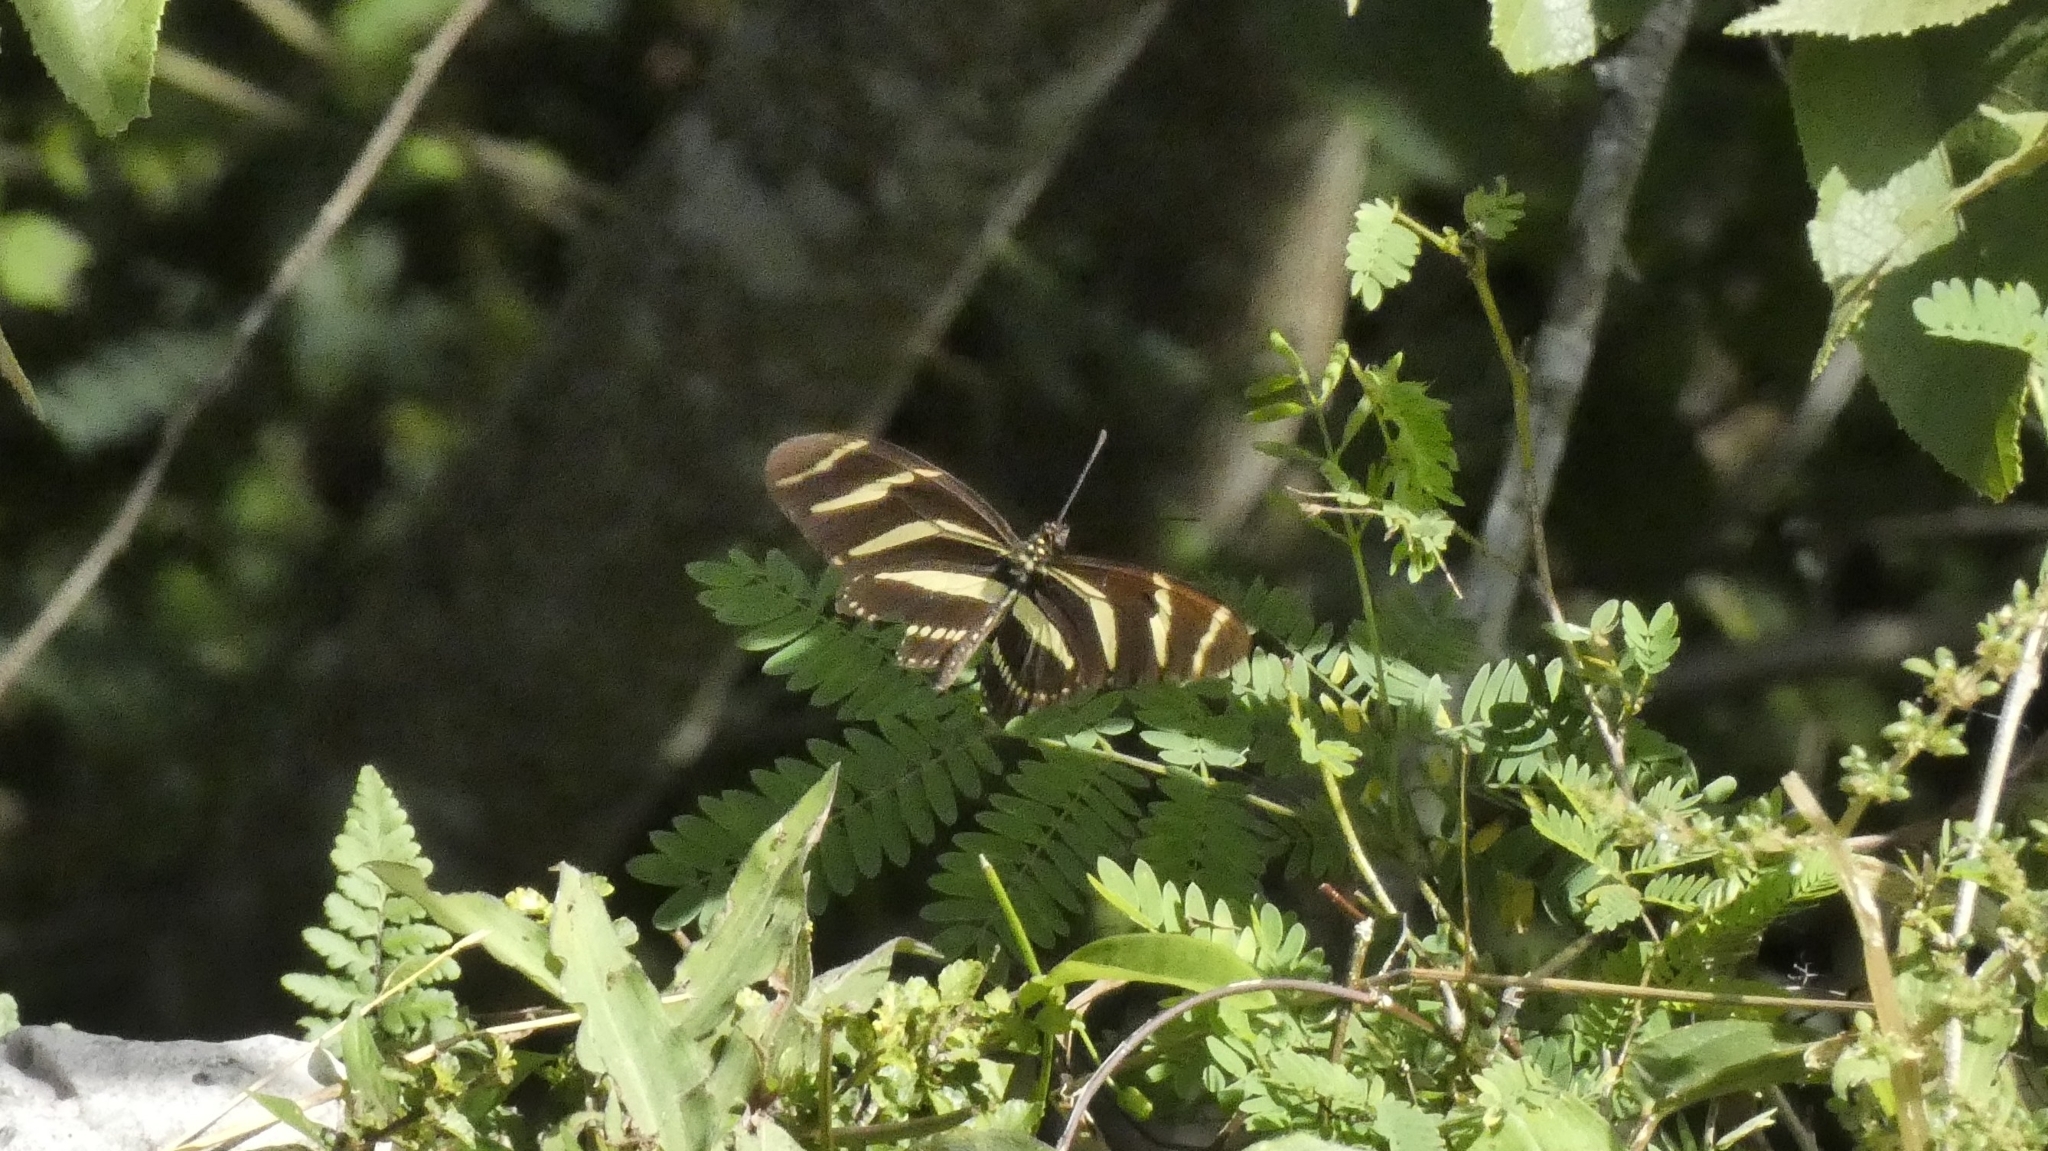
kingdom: Animalia
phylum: Arthropoda
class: Insecta
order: Lepidoptera
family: Nymphalidae
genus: Heliconius
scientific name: Heliconius charithonia
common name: Zebra long wing
